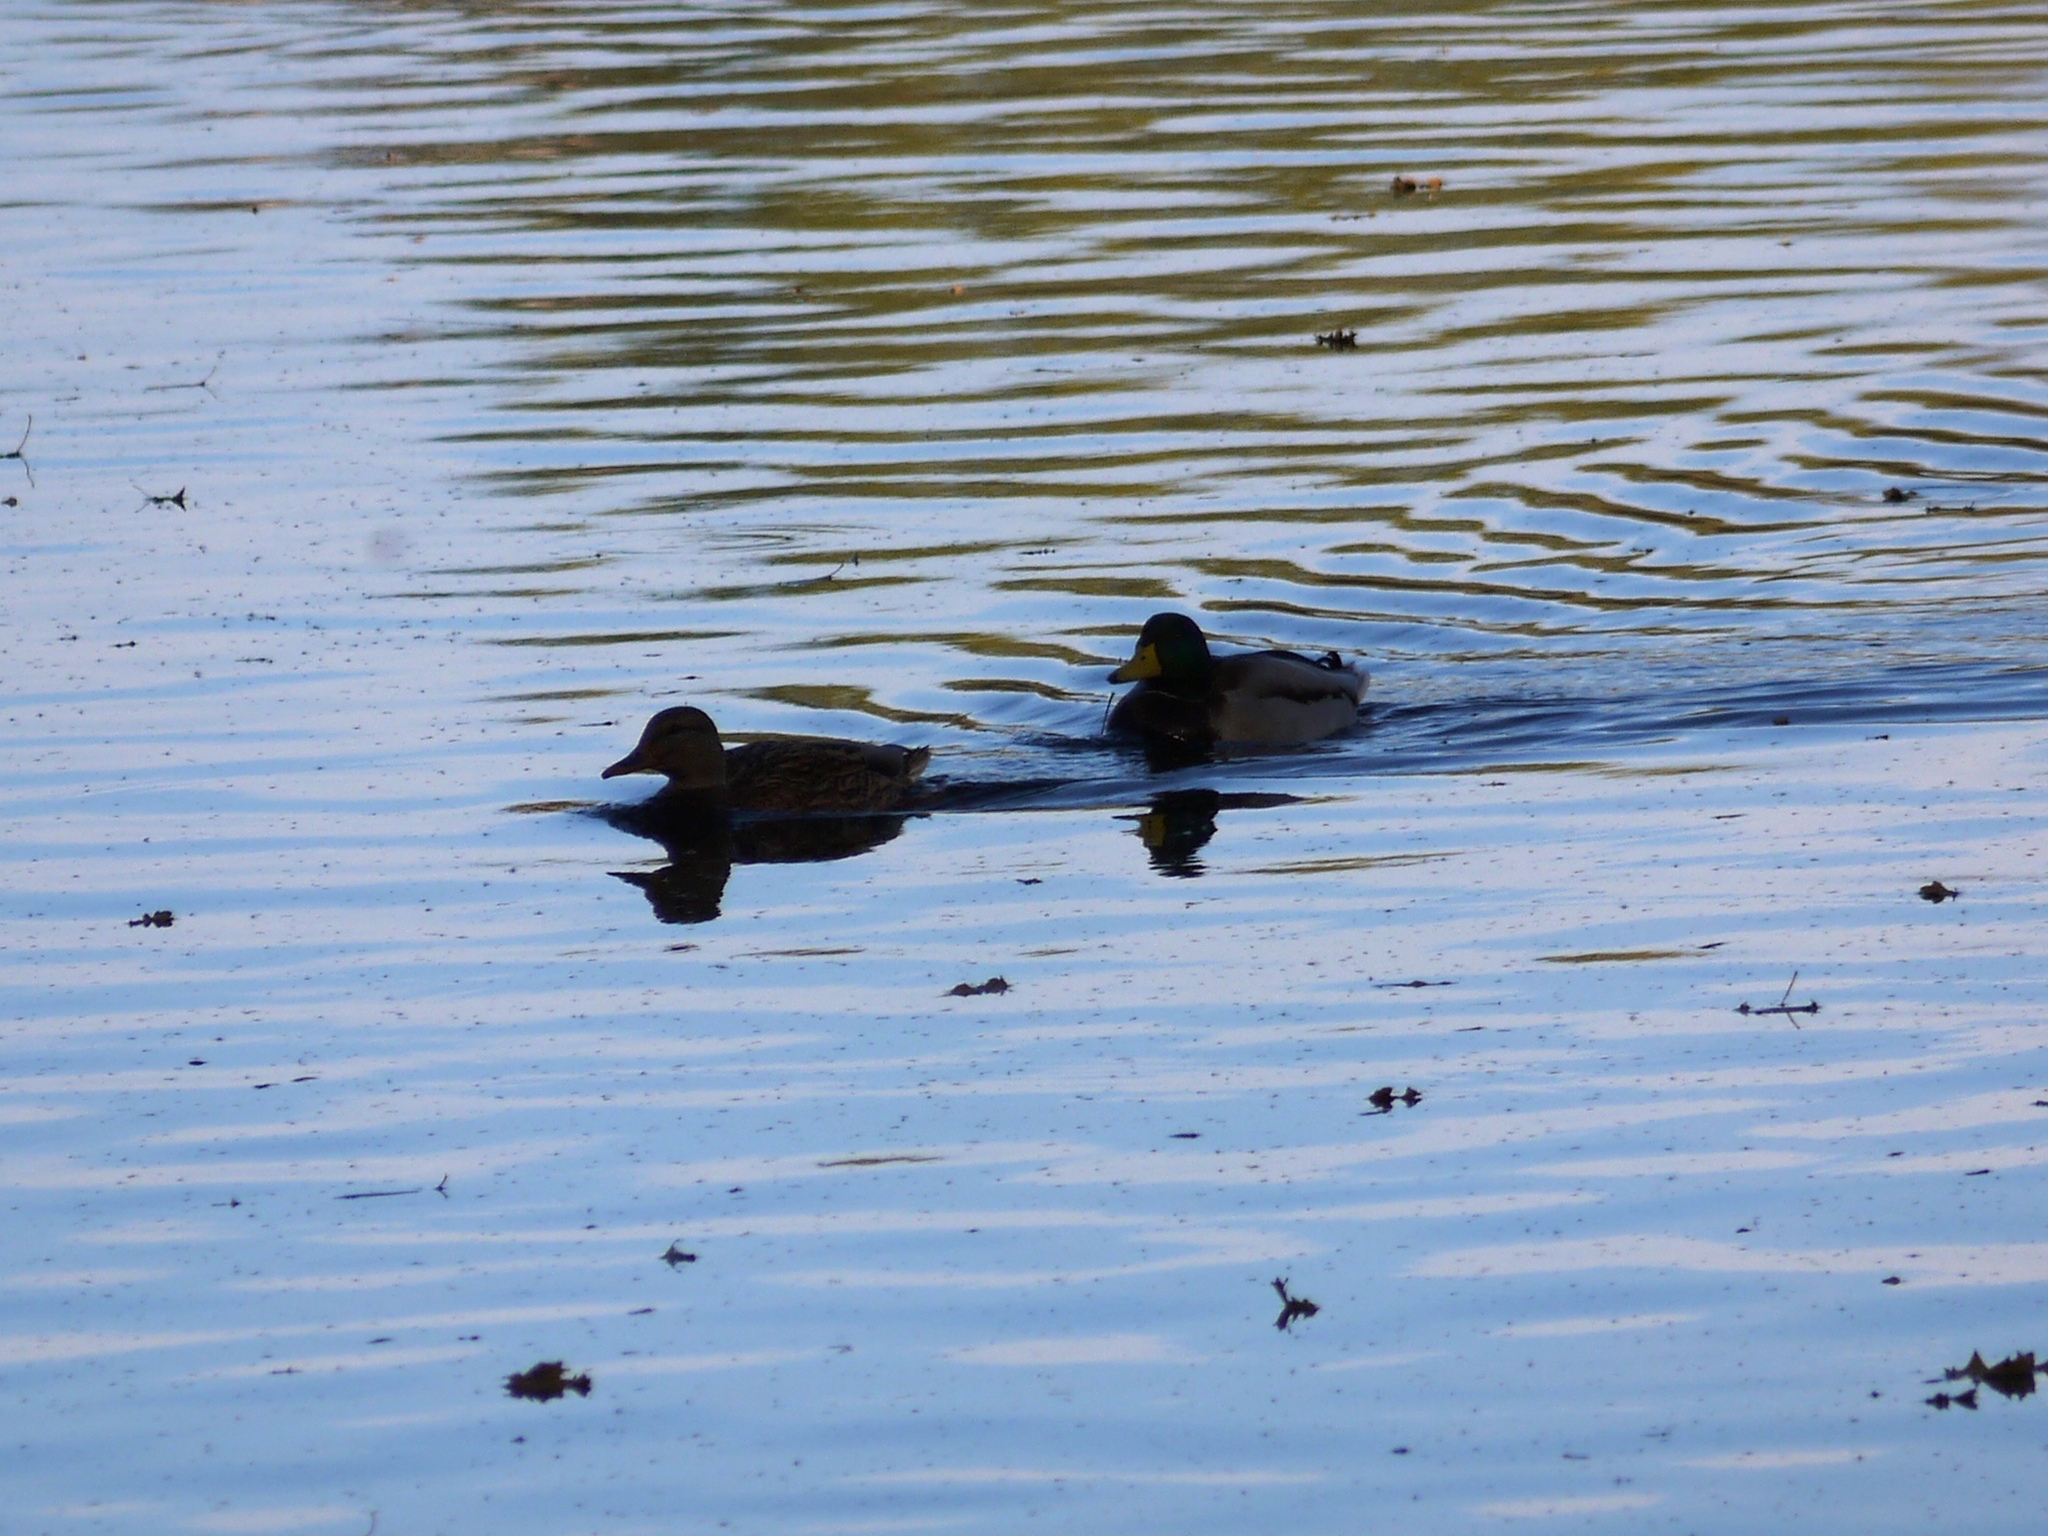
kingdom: Animalia
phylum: Chordata
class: Aves
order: Anseriformes
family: Anatidae
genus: Anas
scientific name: Anas platyrhynchos
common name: Mallard
